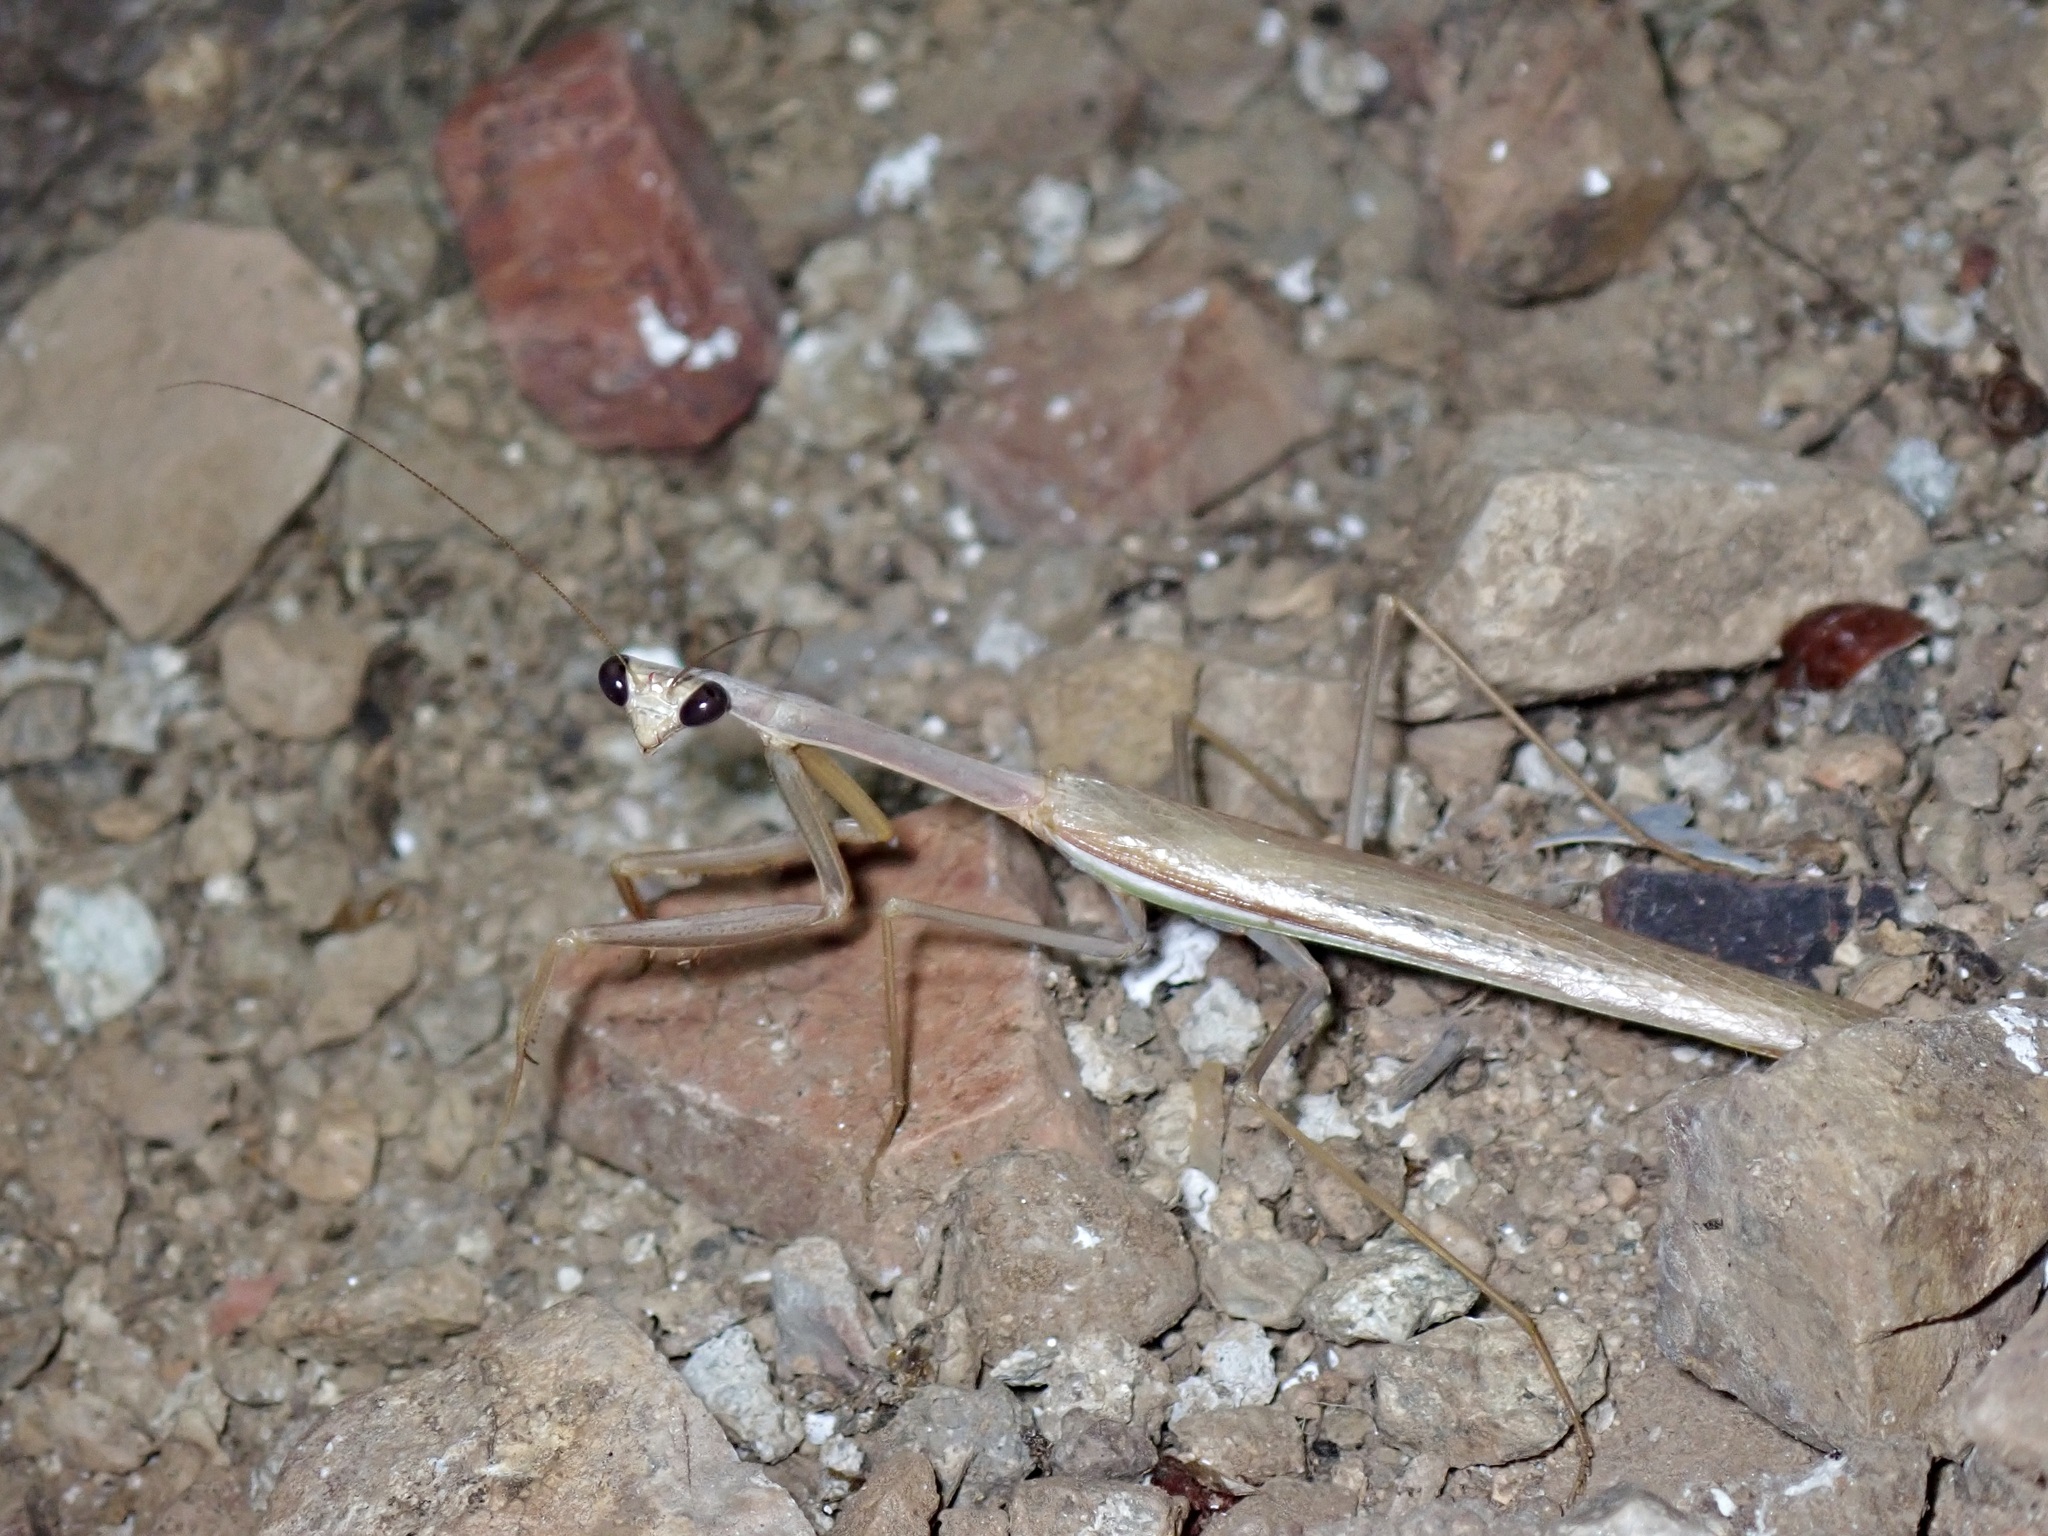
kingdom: Animalia
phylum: Arthropoda
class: Insecta
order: Mantodea
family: Mantidae
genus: Stagmomantis
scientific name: Stagmomantis gracilipes
